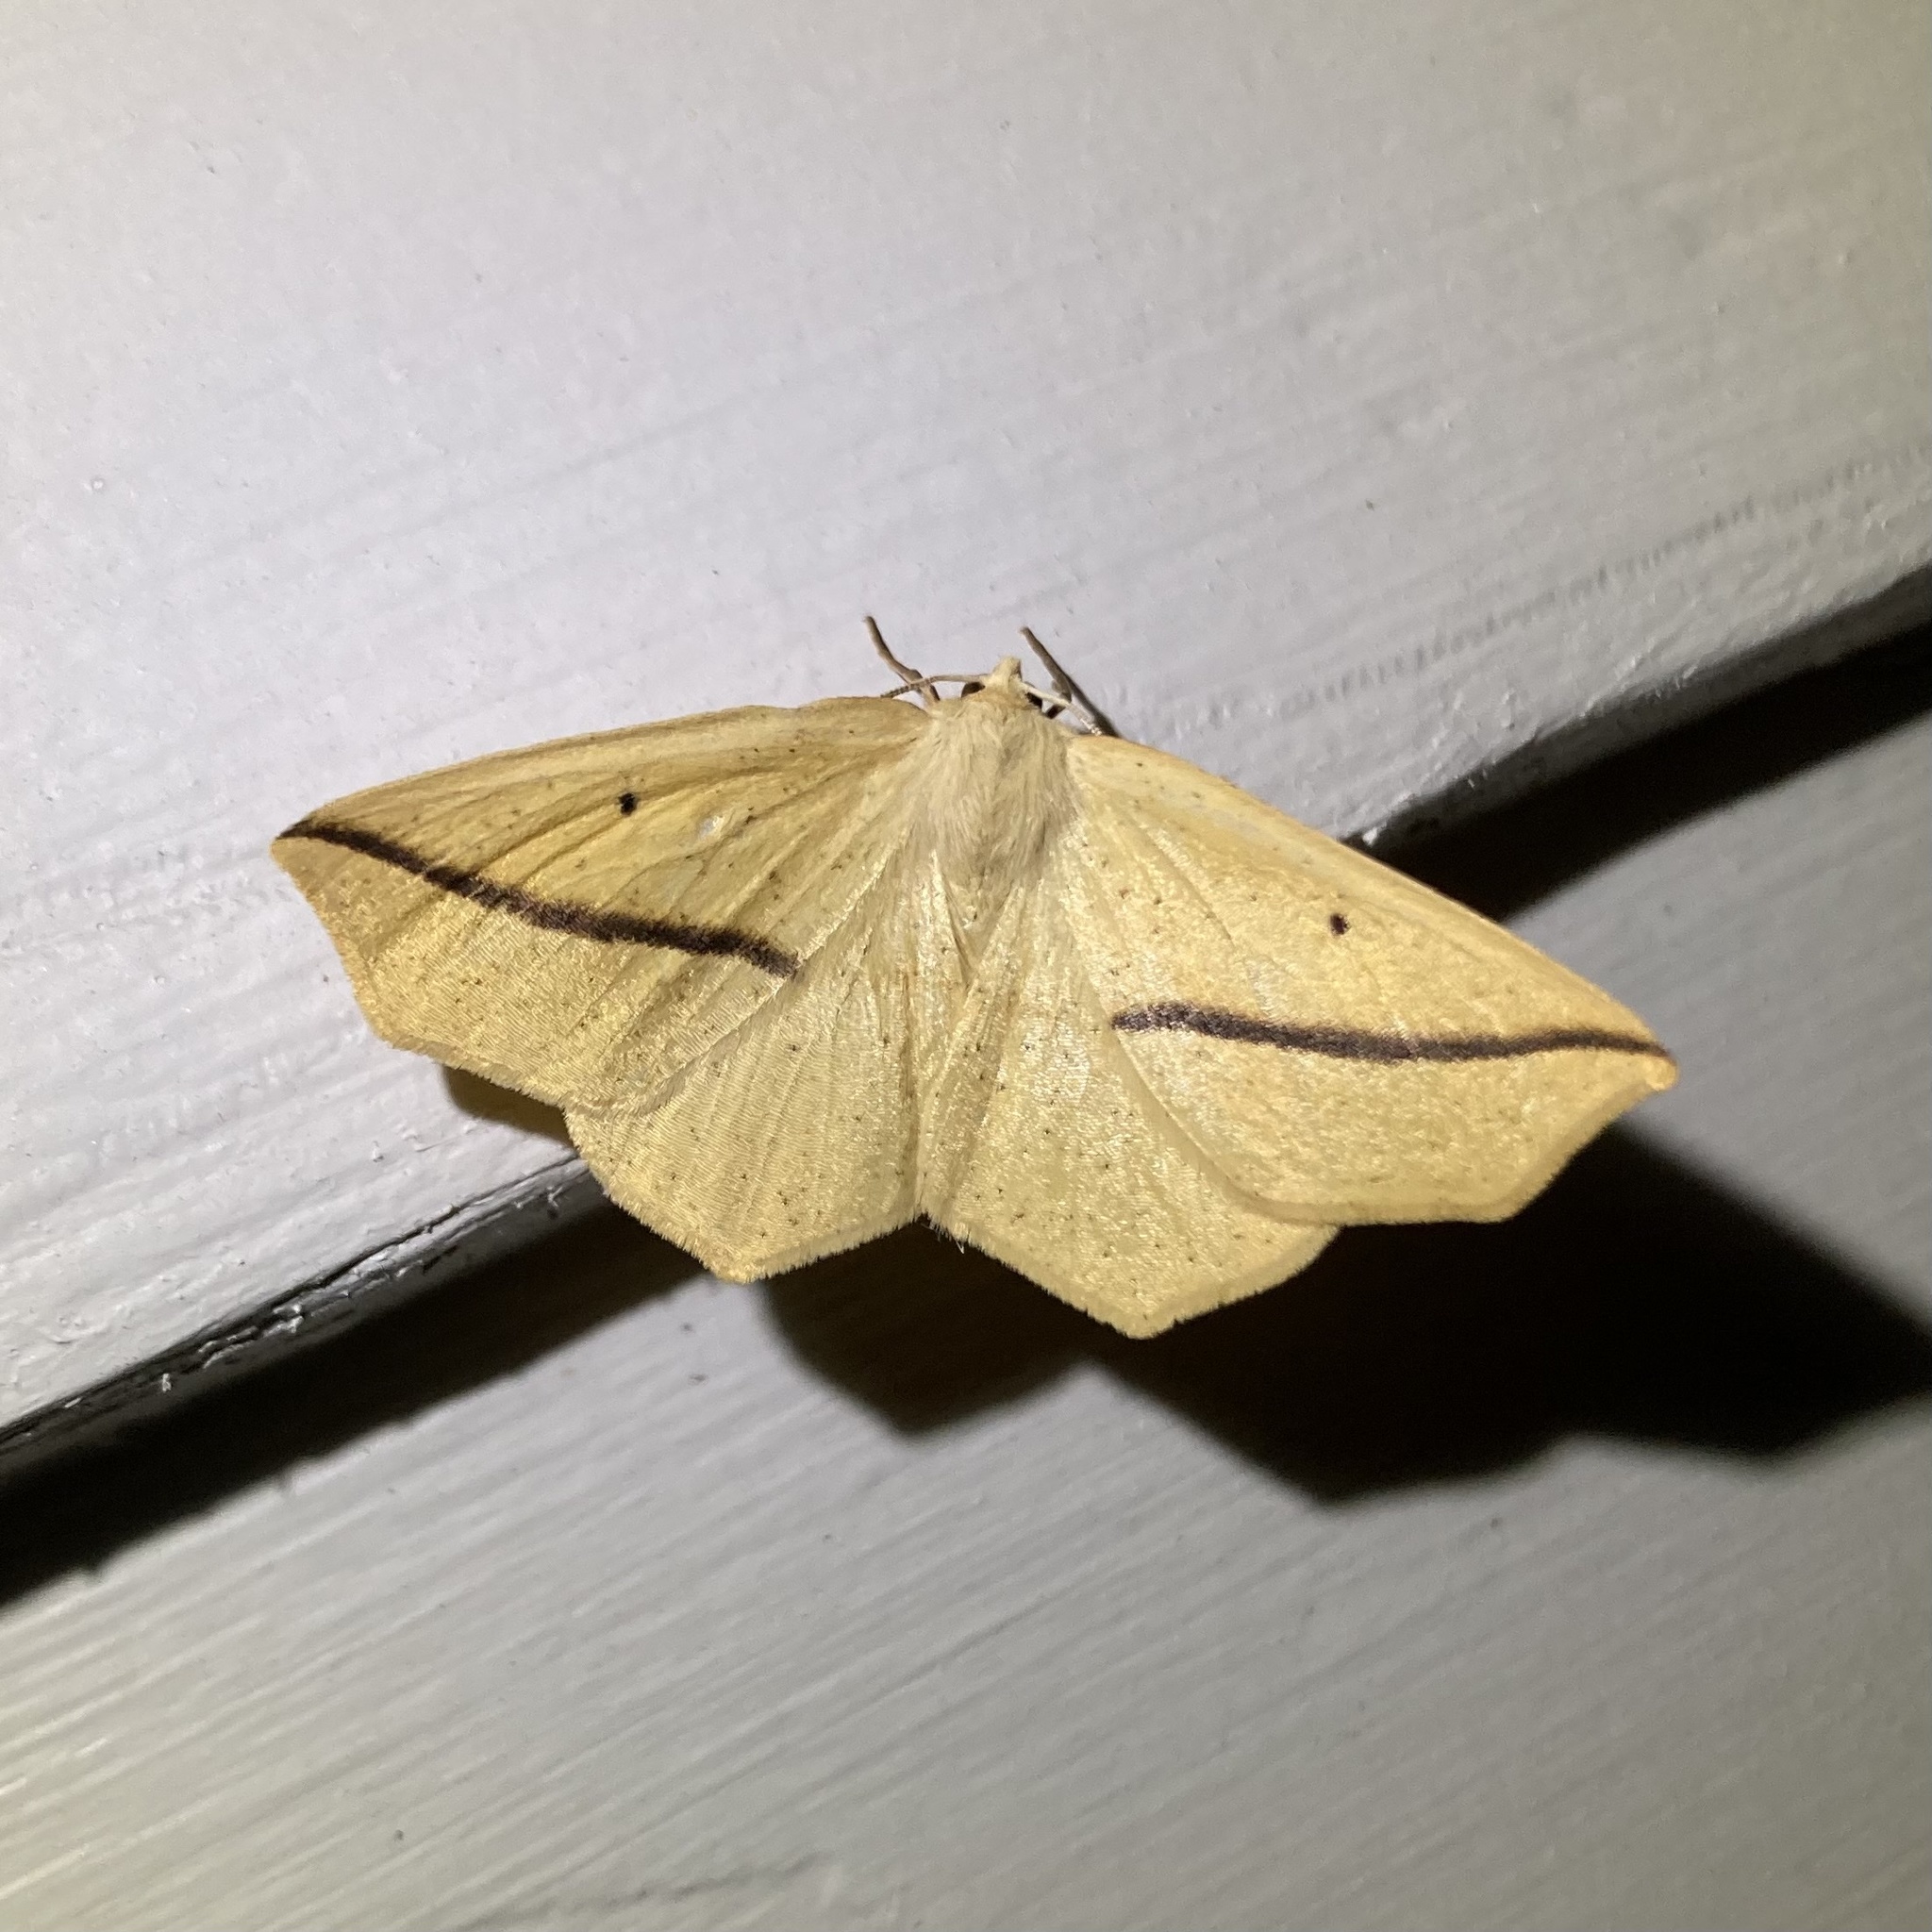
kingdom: Animalia
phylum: Arthropoda
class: Insecta
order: Lepidoptera
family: Geometridae
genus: Tetracis
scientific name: Tetracis crocallata
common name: Yellow slant-line
